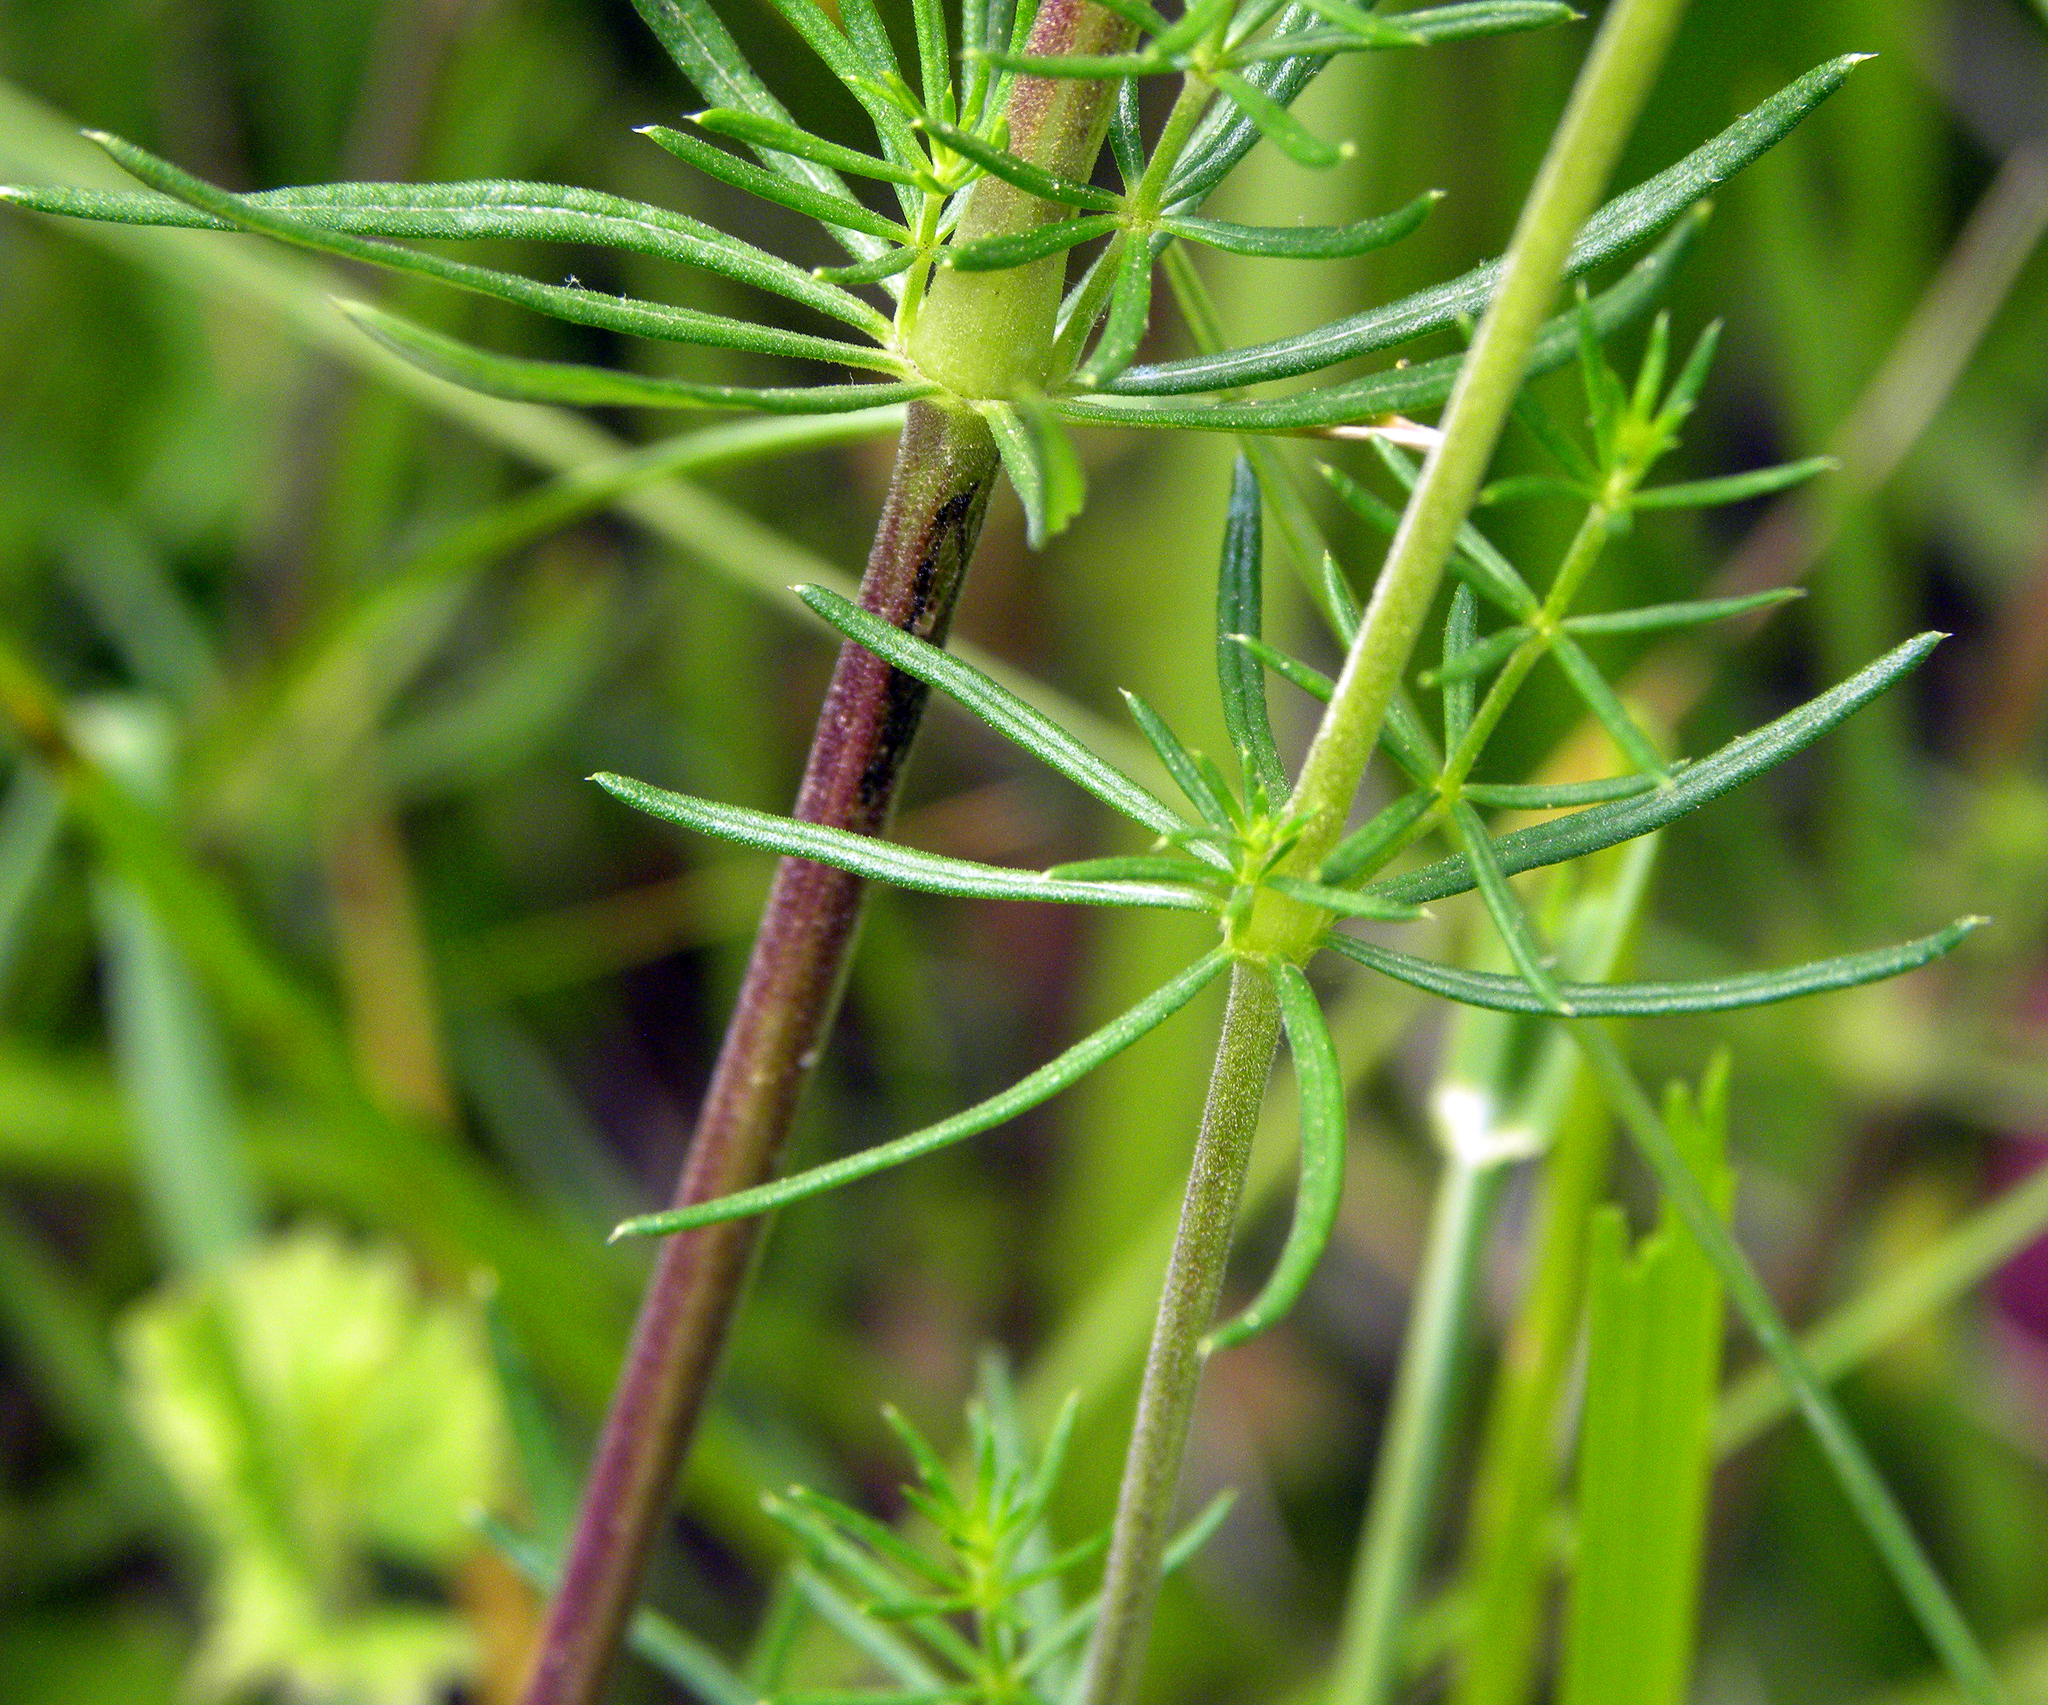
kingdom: Plantae
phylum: Tracheophyta
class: Magnoliopsida
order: Gentianales
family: Rubiaceae
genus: Galium
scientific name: Galium verum
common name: Lady's bedstraw
